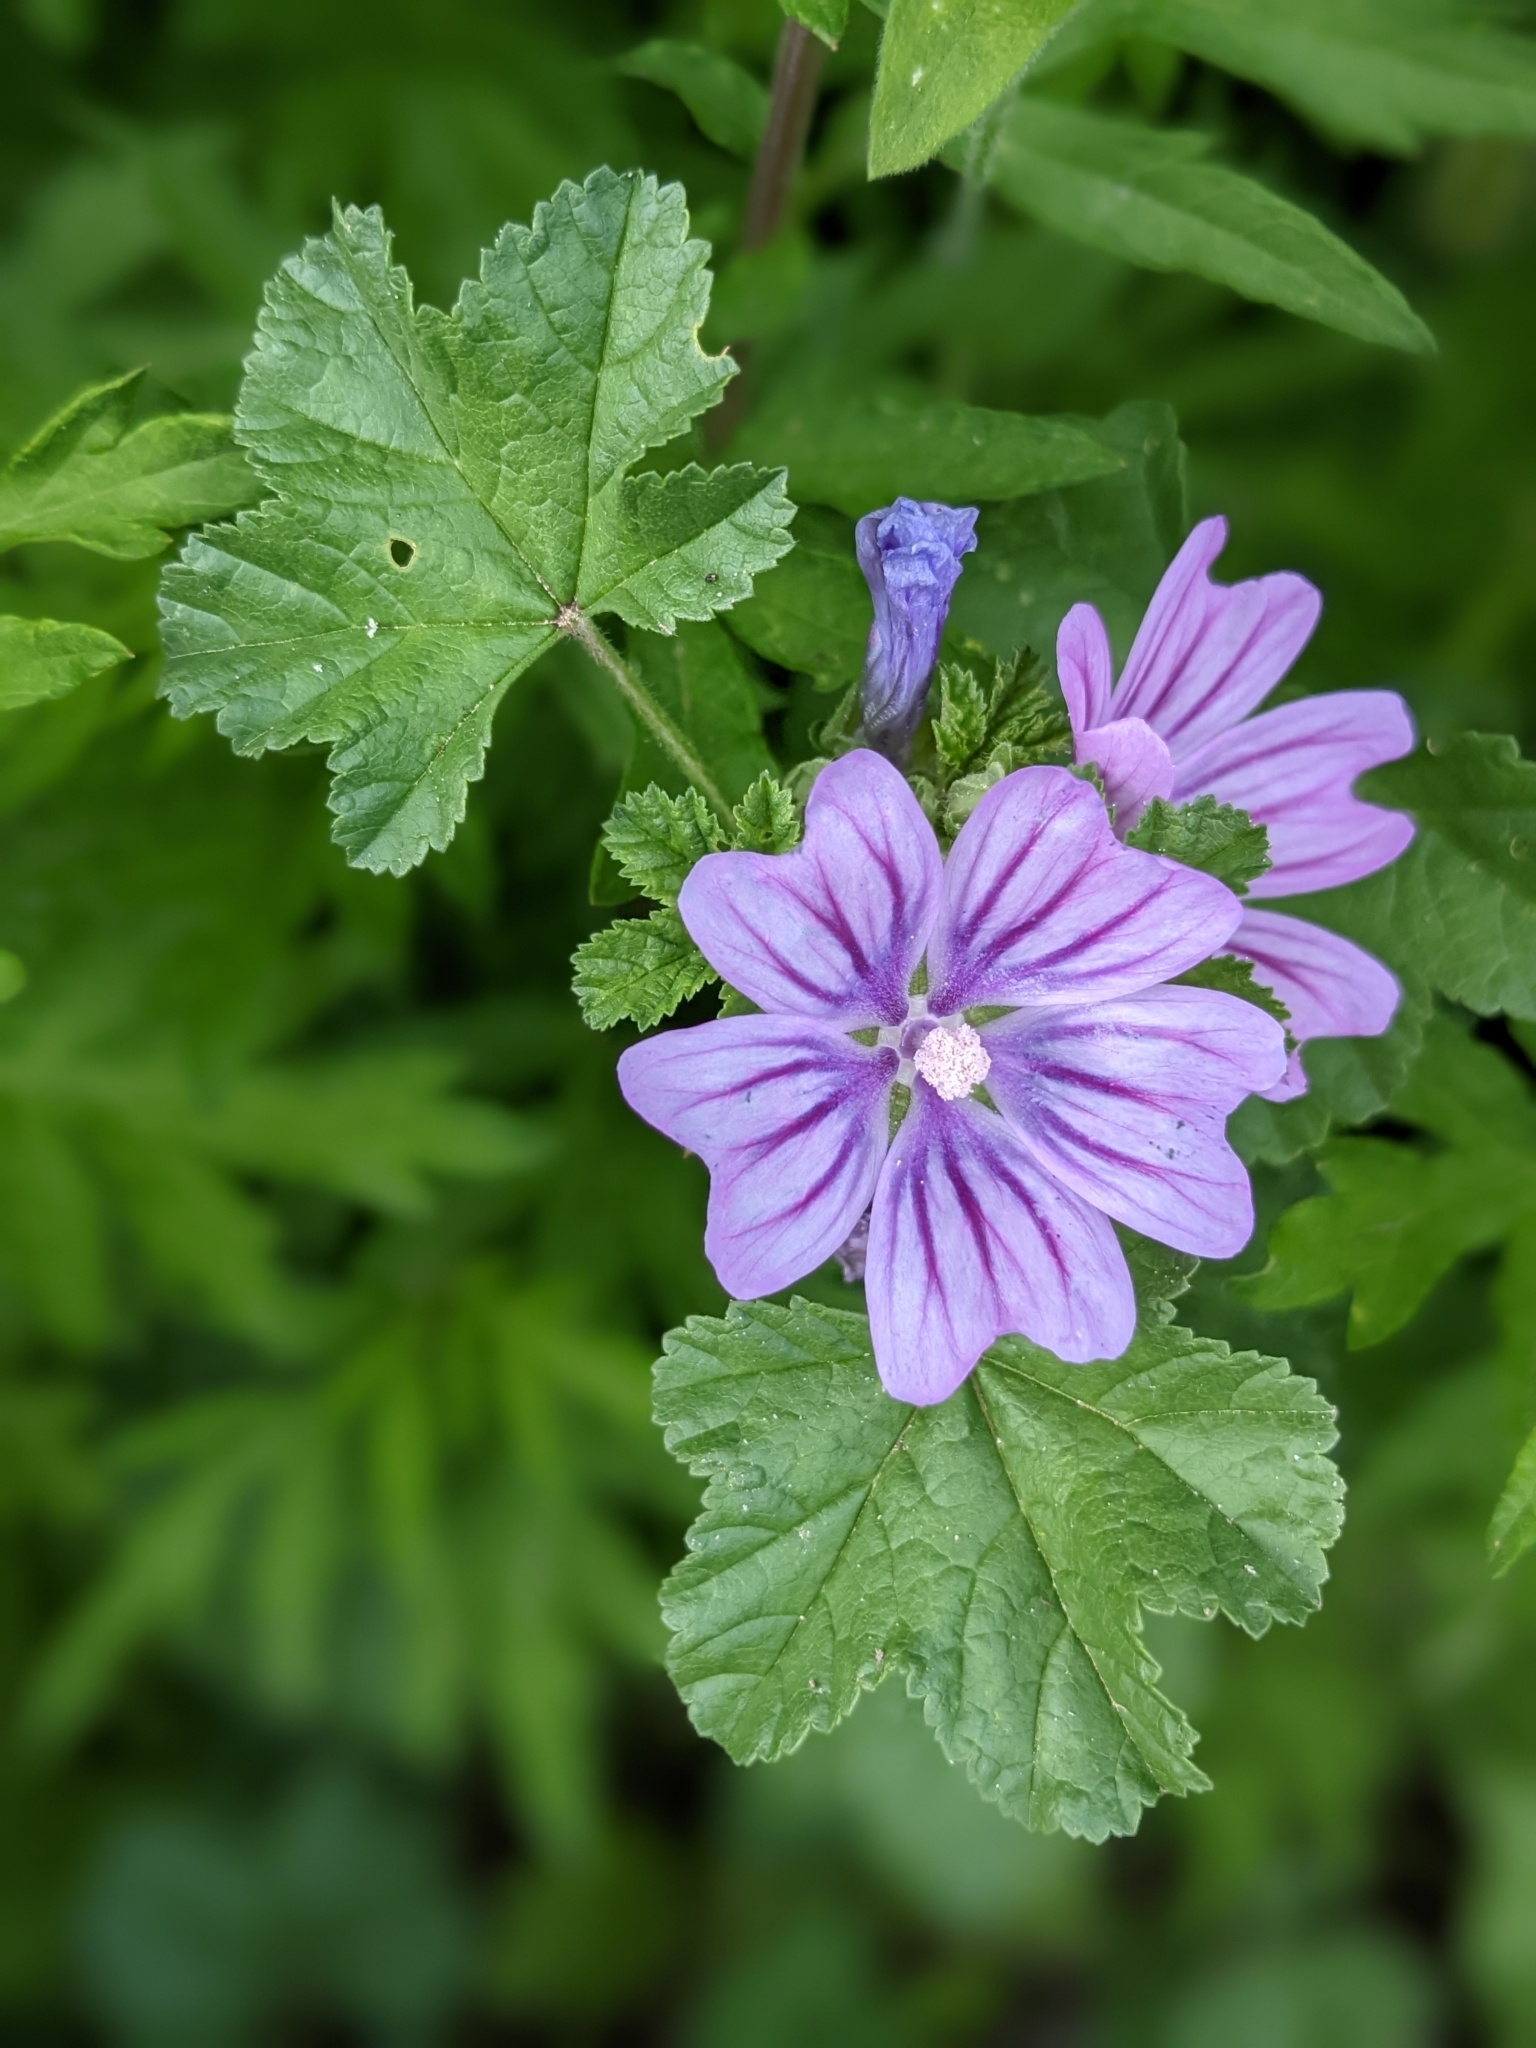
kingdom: Plantae
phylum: Tracheophyta
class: Magnoliopsida
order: Malvales
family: Malvaceae
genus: Malva
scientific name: Malva sylvestris
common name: Common mallow
